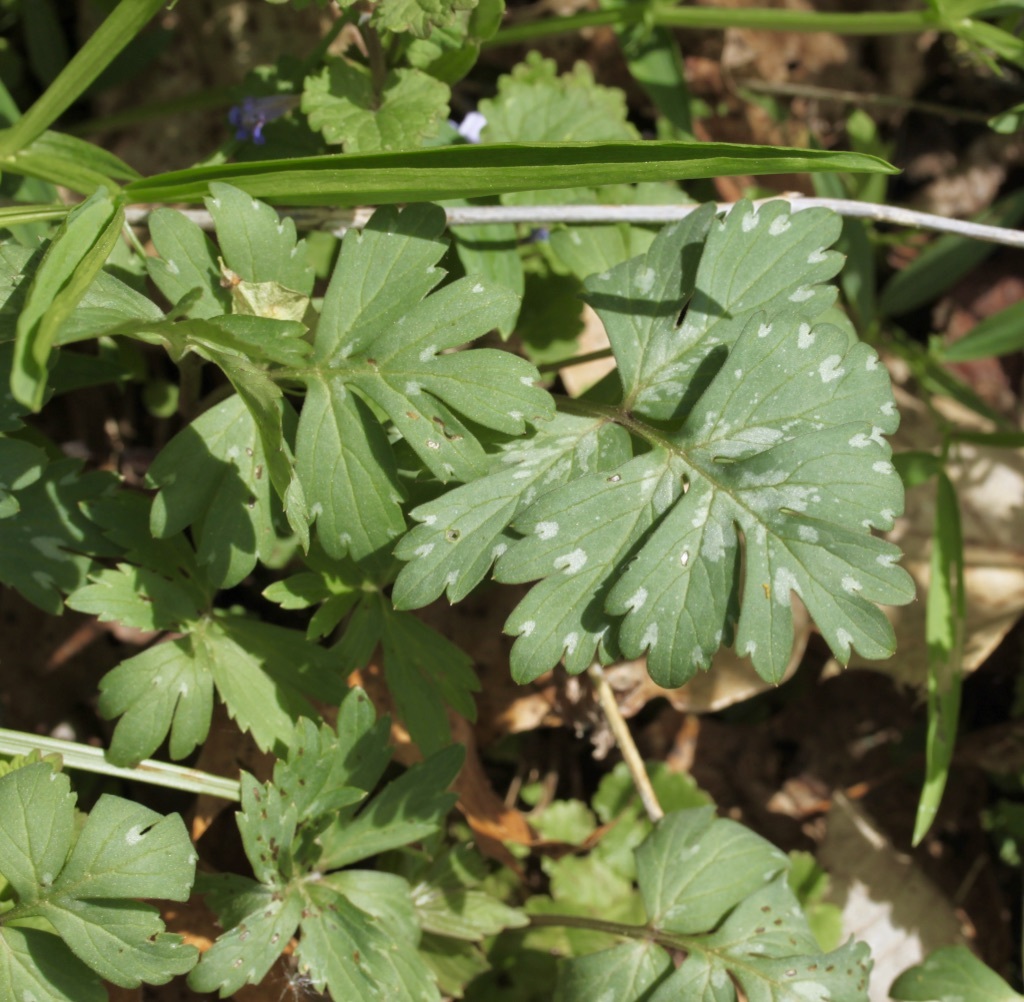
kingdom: Plantae
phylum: Tracheophyta
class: Magnoliopsida
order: Boraginales
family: Hydrophyllaceae
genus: Hydrophyllum
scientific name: Hydrophyllum virginianum
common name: Virginia waterleaf
